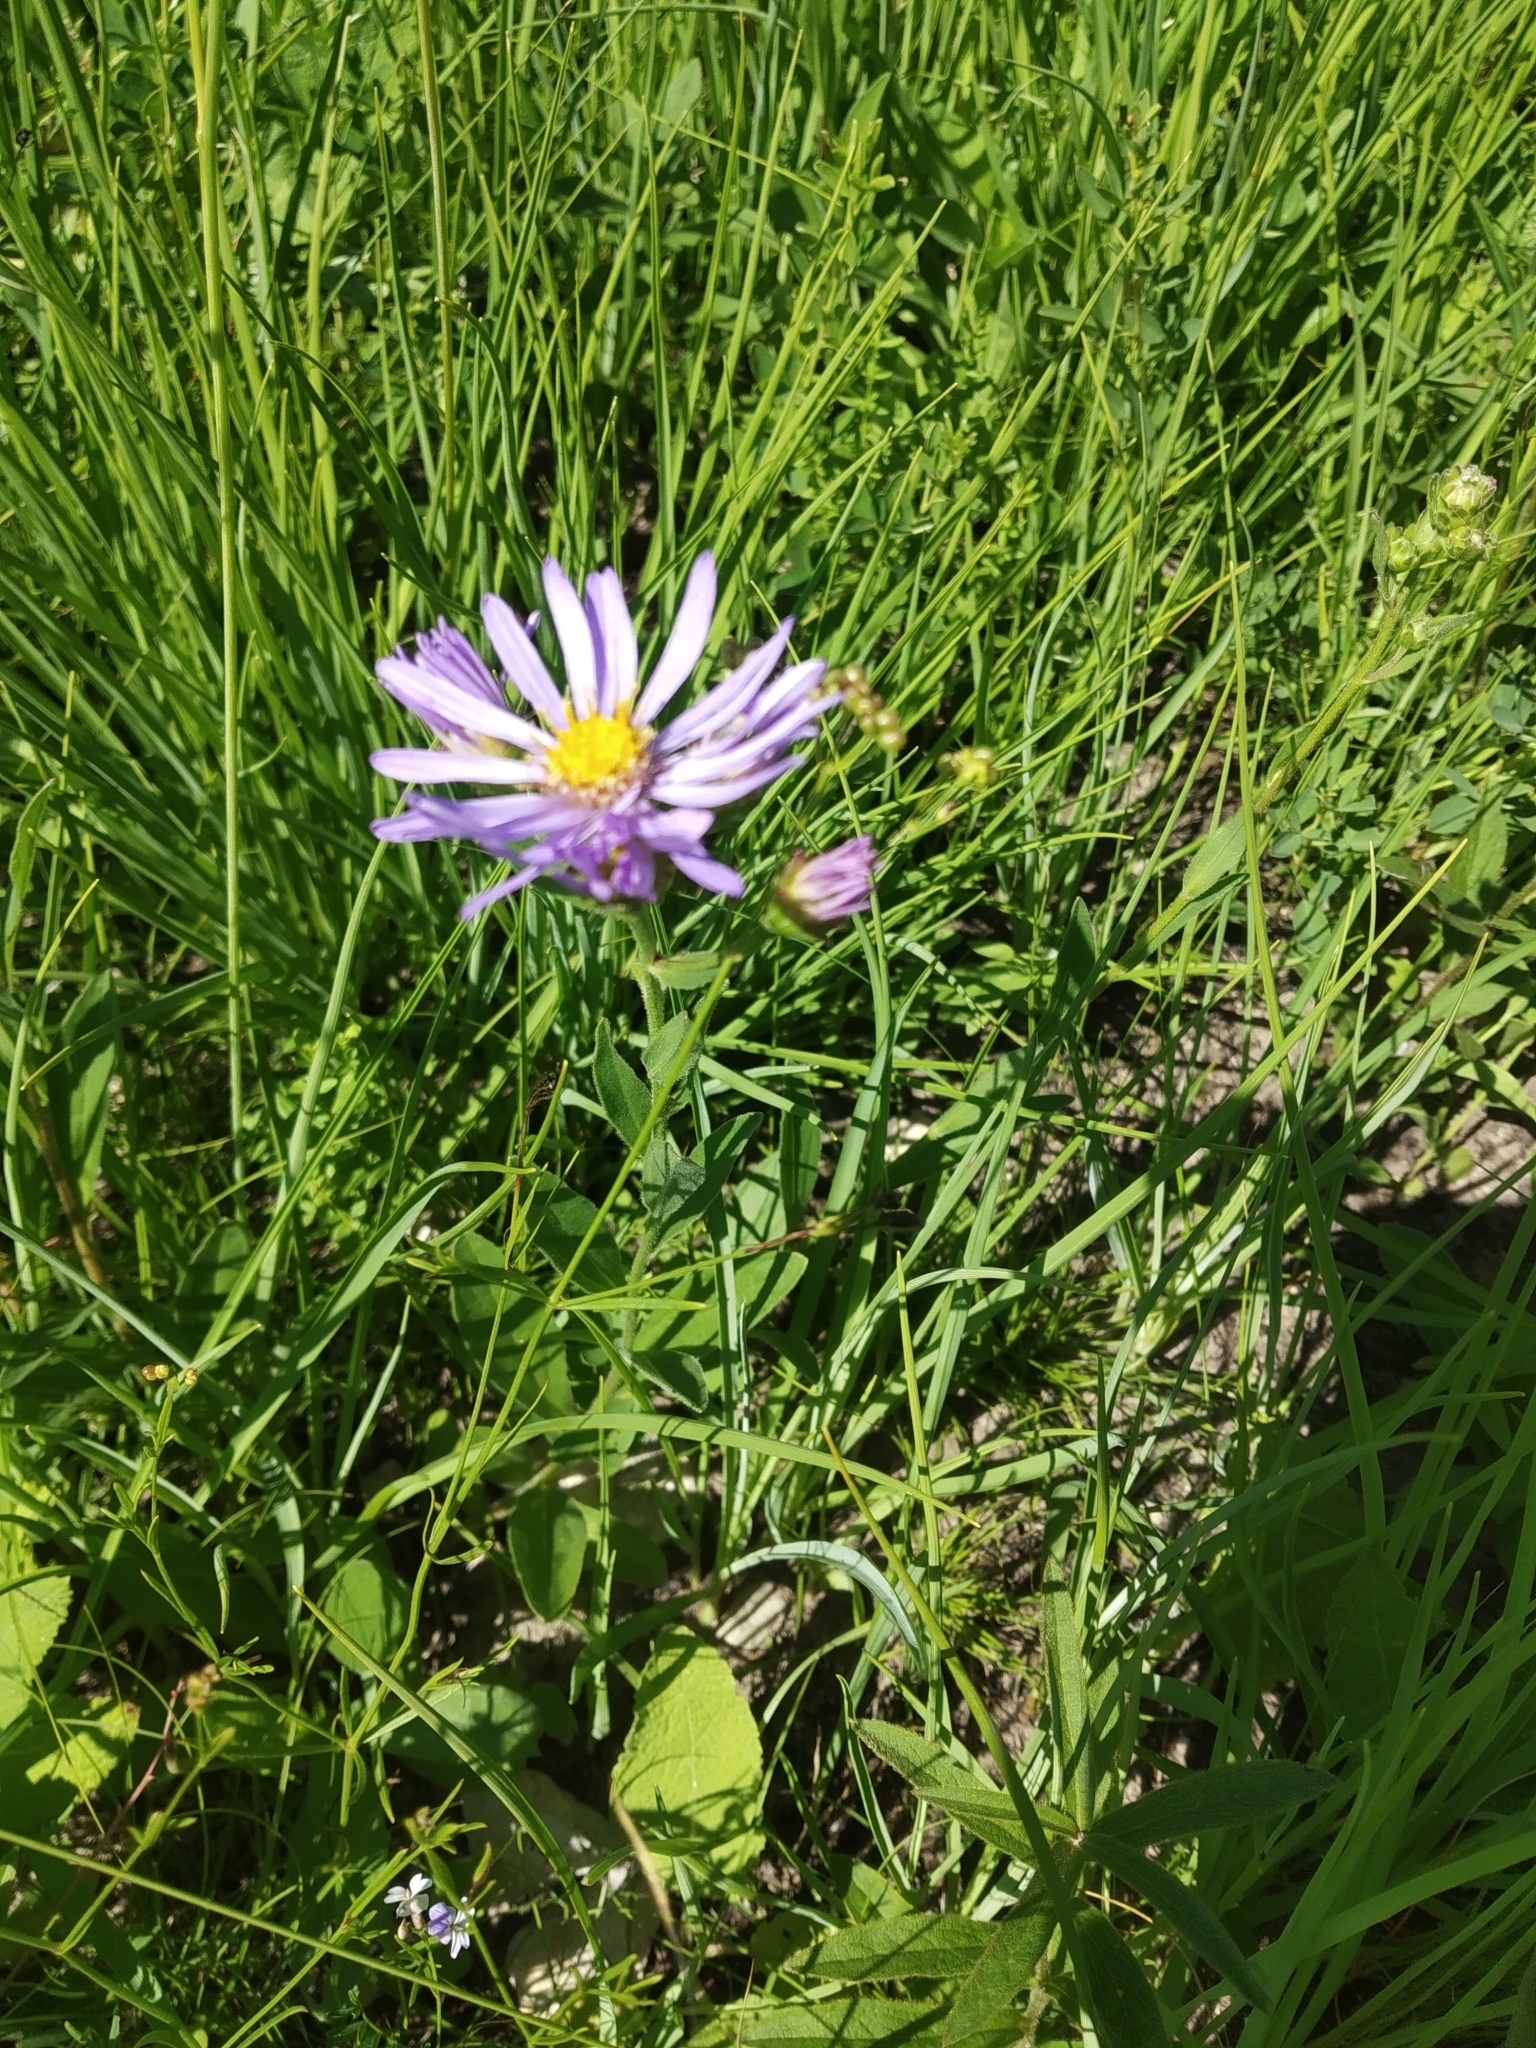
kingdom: Plantae
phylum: Tracheophyta
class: Magnoliopsida
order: Asterales
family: Asteraceae
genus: Aster
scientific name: Aster amellus
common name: European michaelmas daisy
